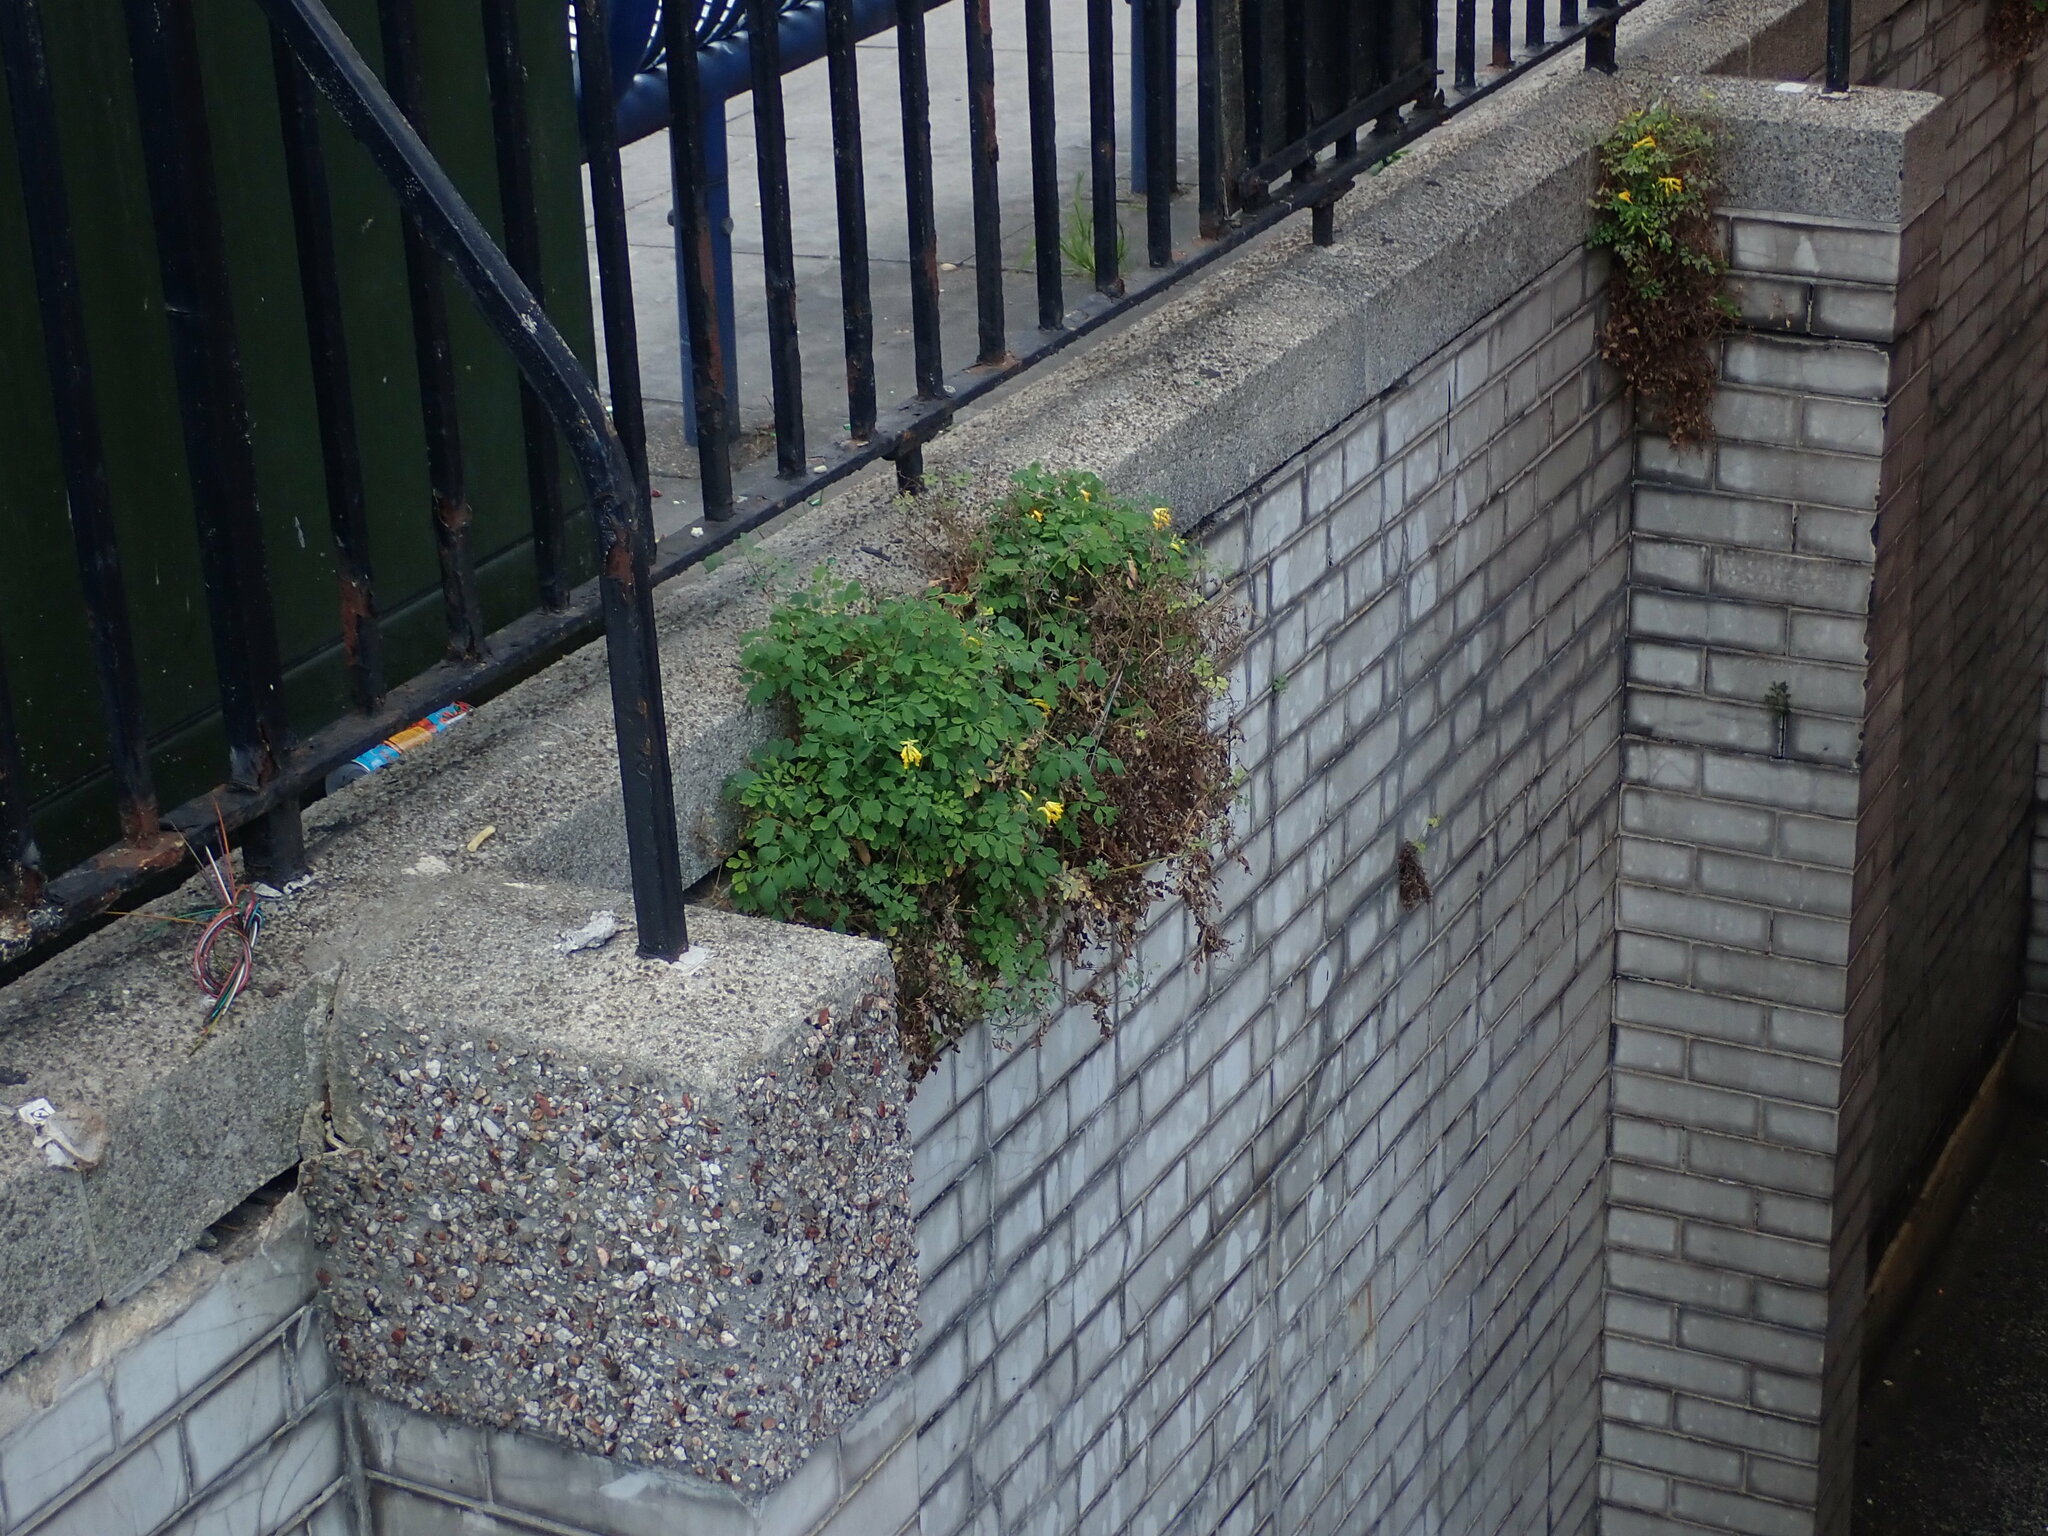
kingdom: Plantae
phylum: Tracheophyta
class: Magnoliopsida
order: Ranunculales
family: Papaveraceae
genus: Pseudofumaria
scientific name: Pseudofumaria lutea
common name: Yellow corydalis
